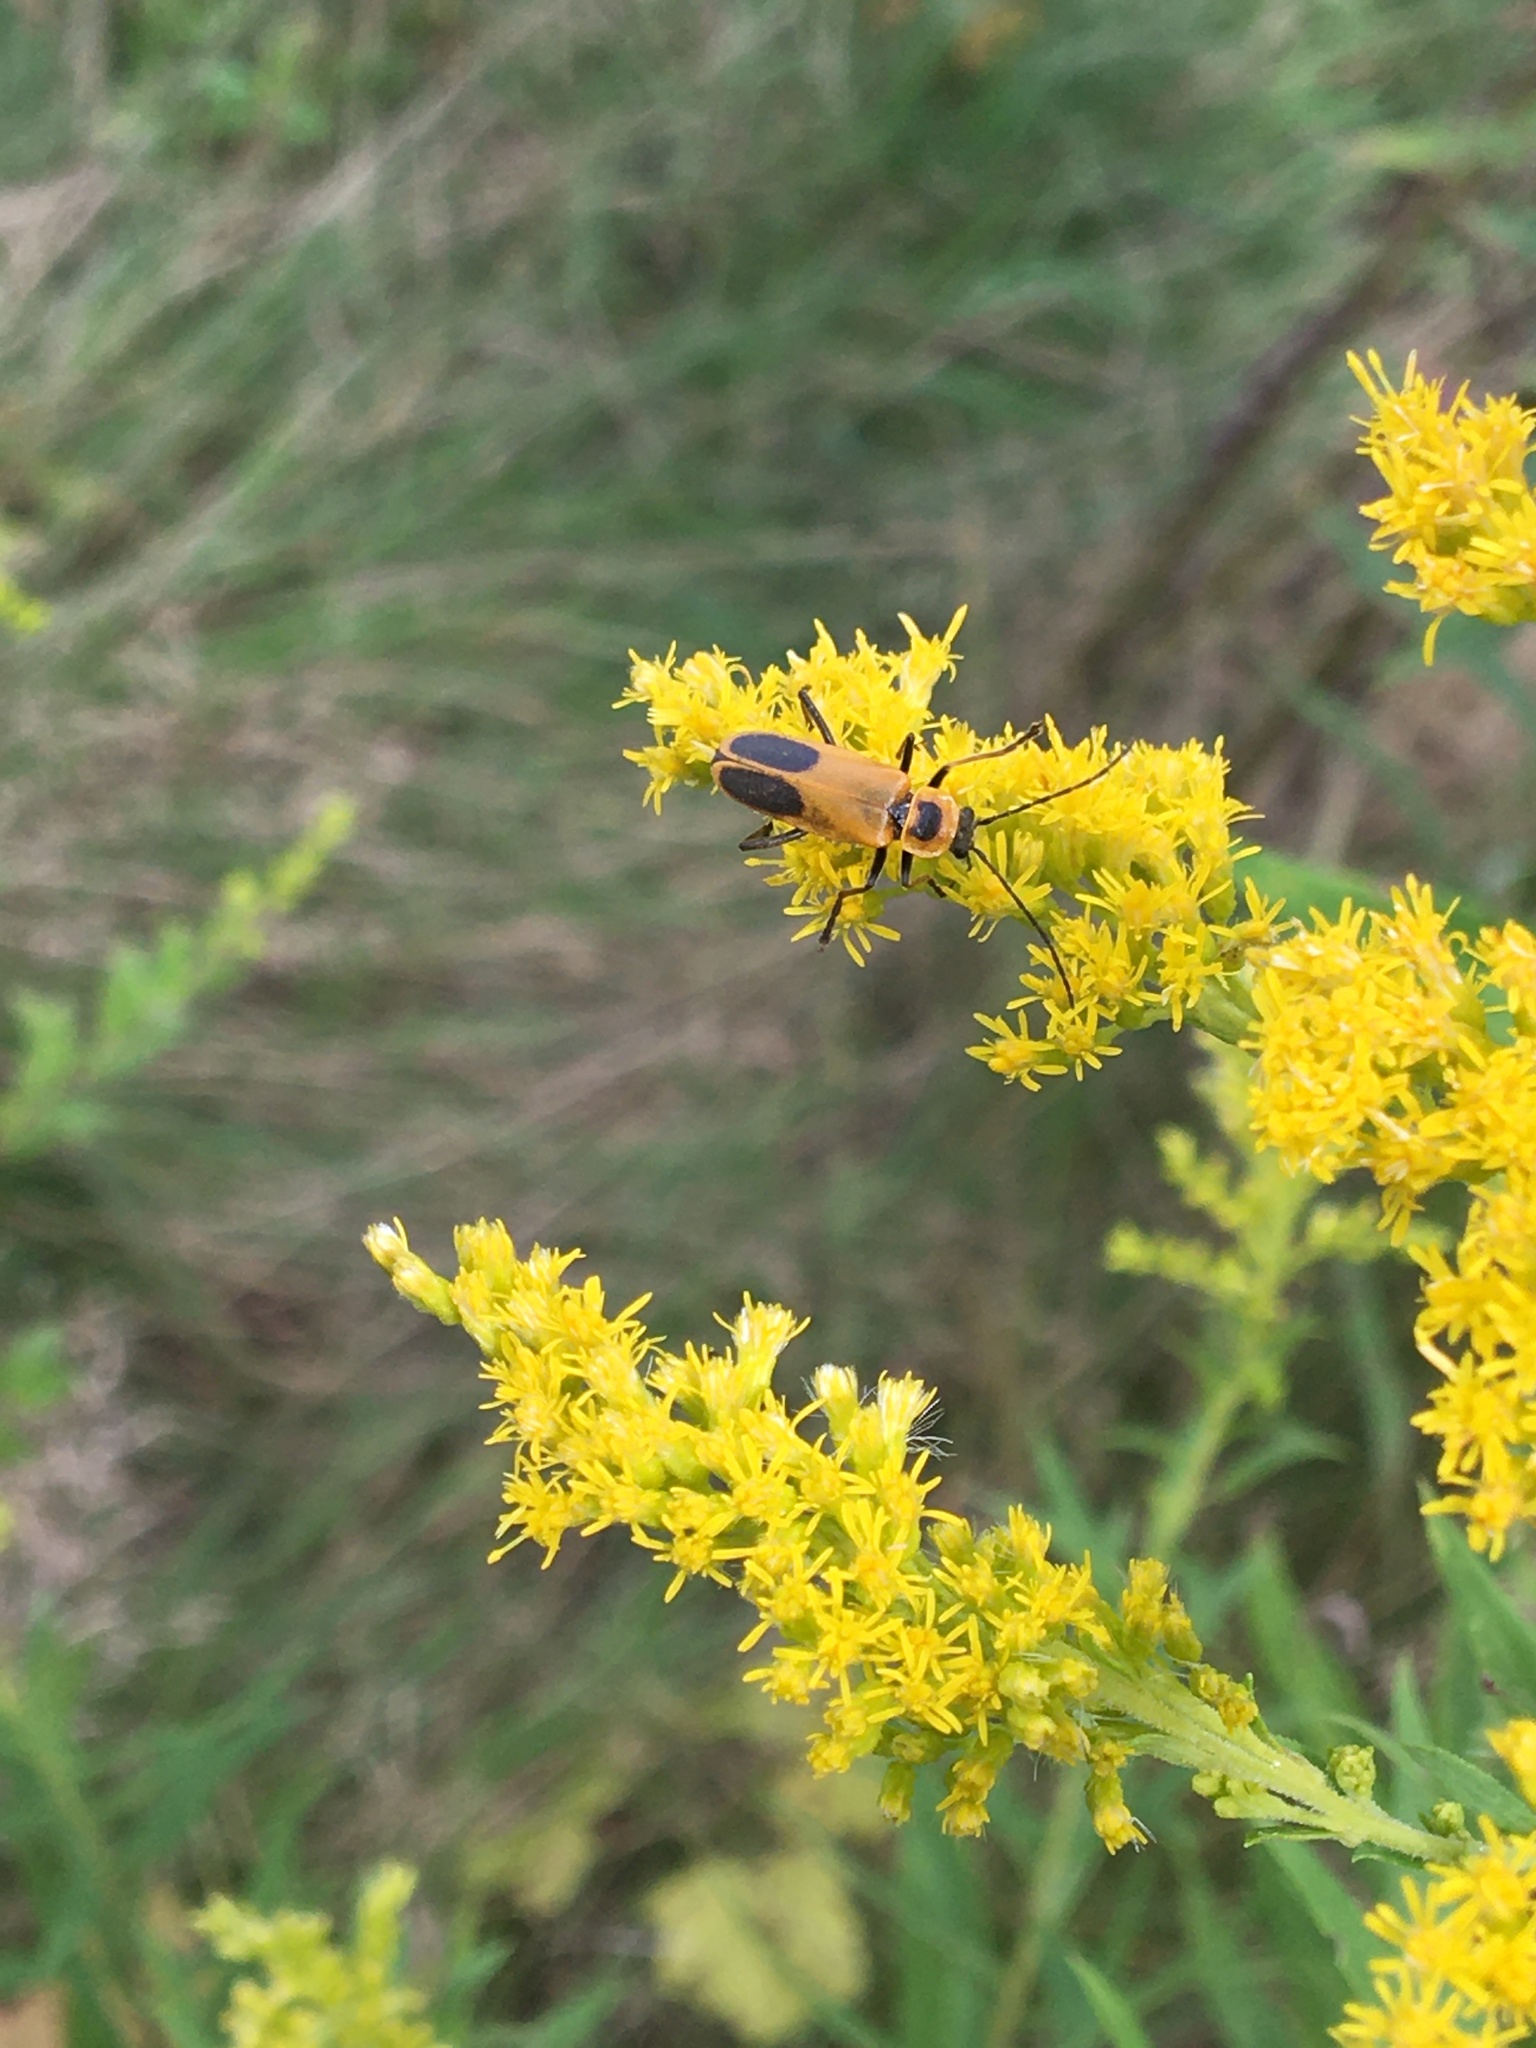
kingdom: Animalia
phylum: Arthropoda
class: Insecta
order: Coleoptera
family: Cantharidae
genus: Chauliognathus
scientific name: Chauliognathus pensylvanicus
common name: Goldenrod soldier beetle
